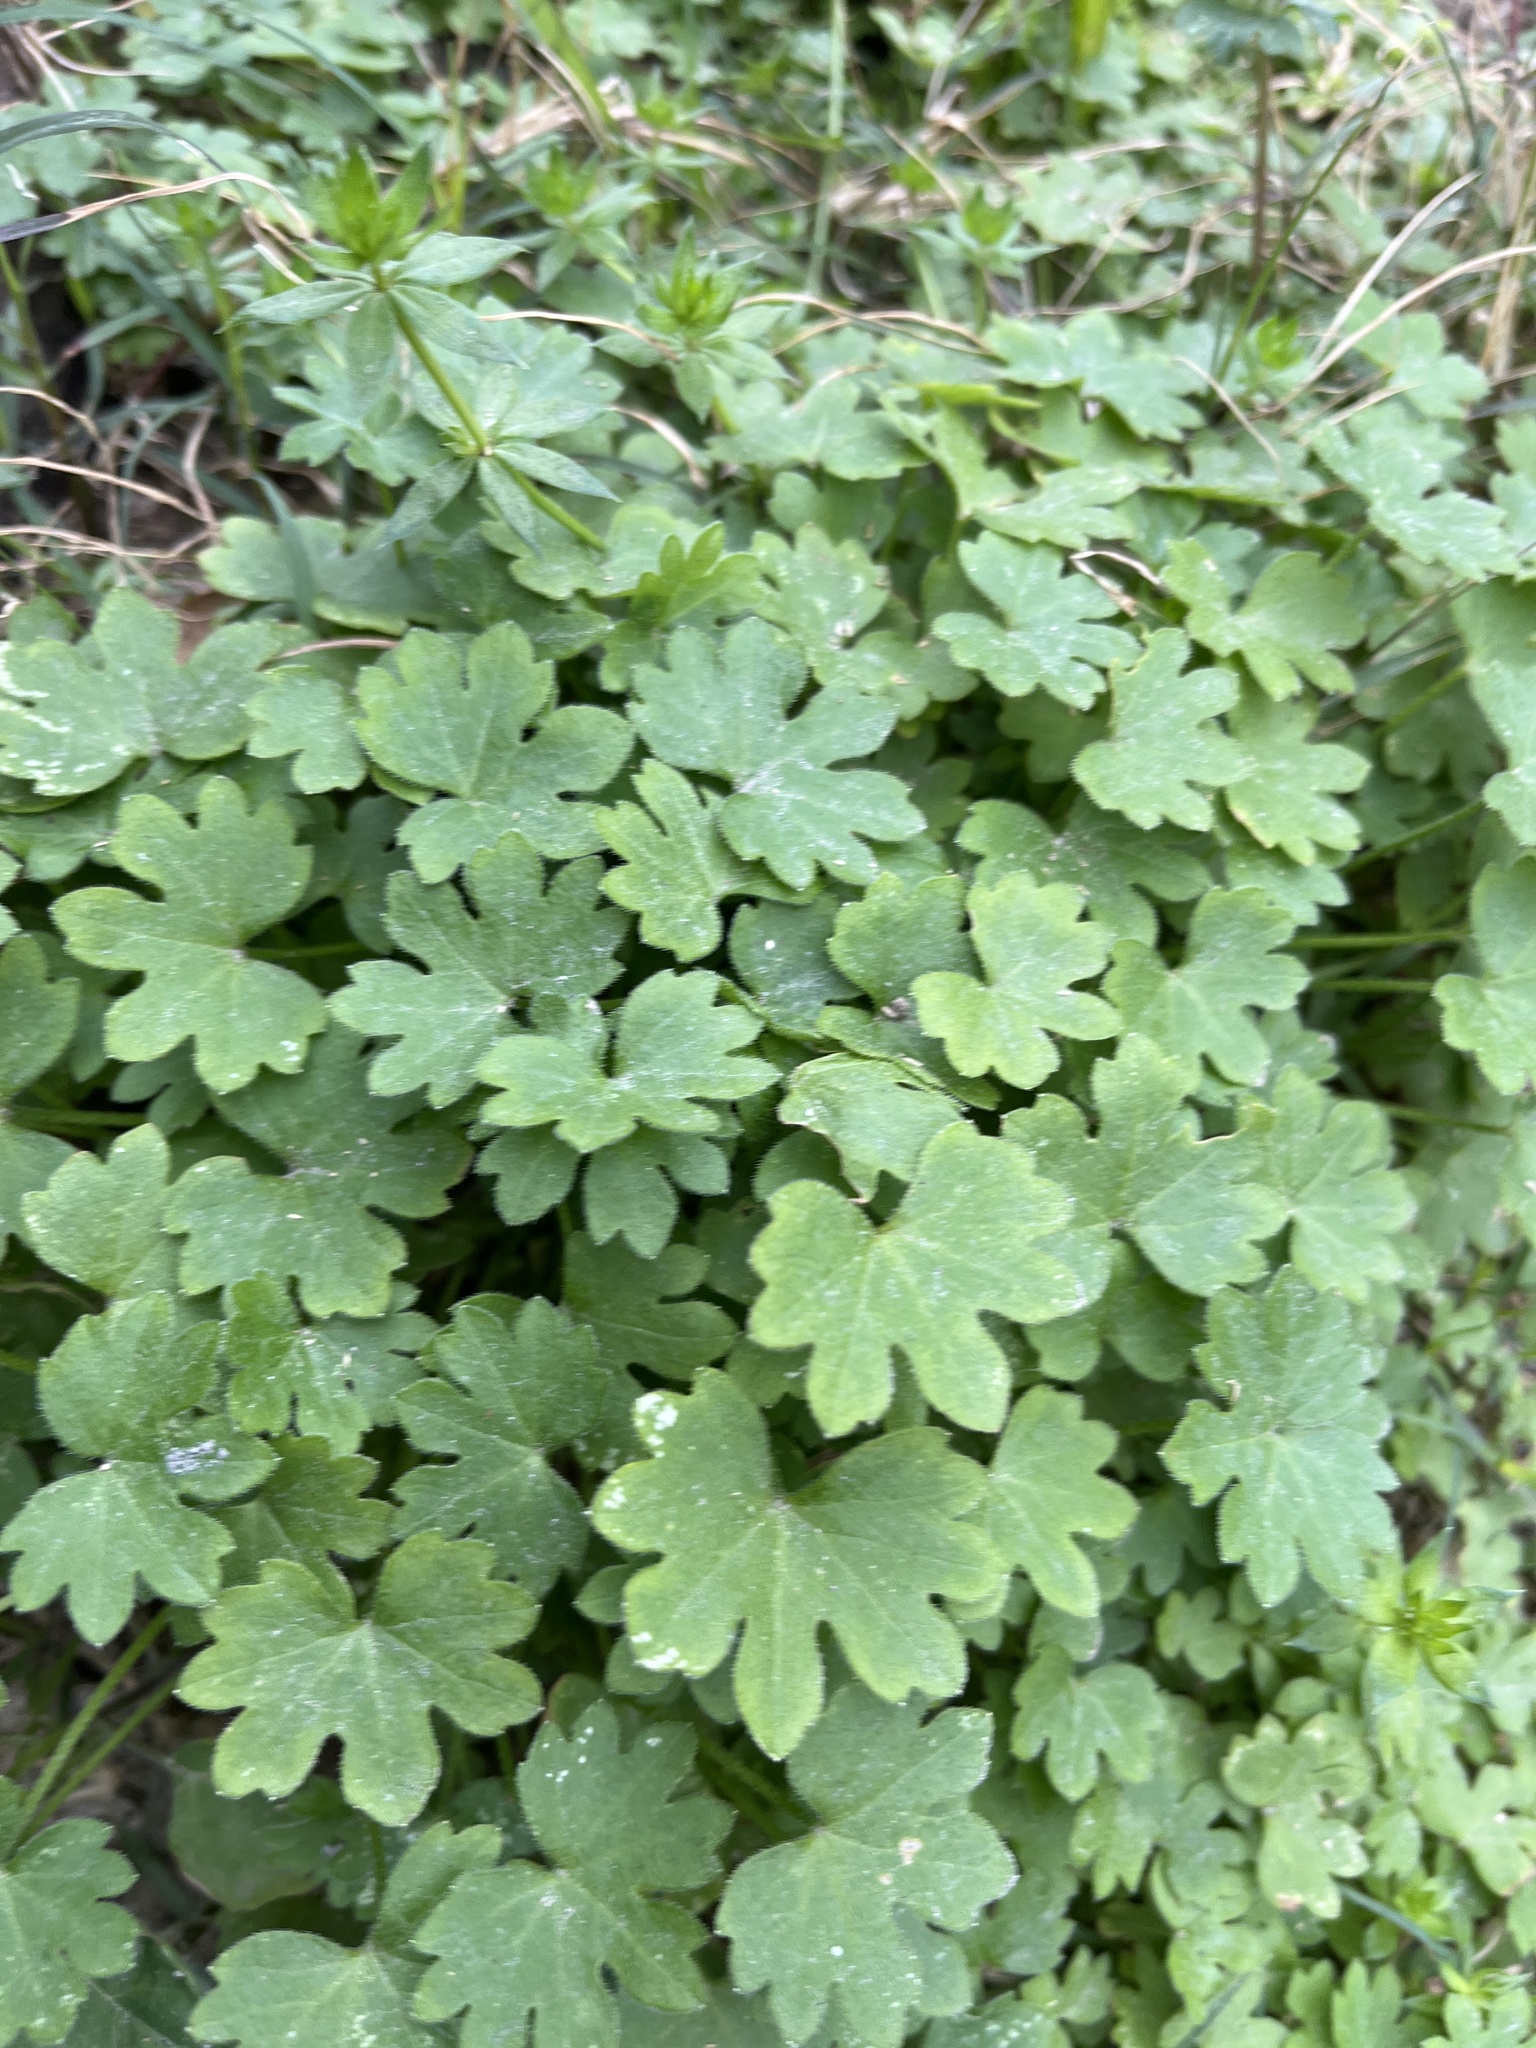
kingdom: Plantae
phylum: Tracheophyta
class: Magnoliopsida
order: Apiales
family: Apiaceae
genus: Bowlesia
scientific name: Bowlesia incana
